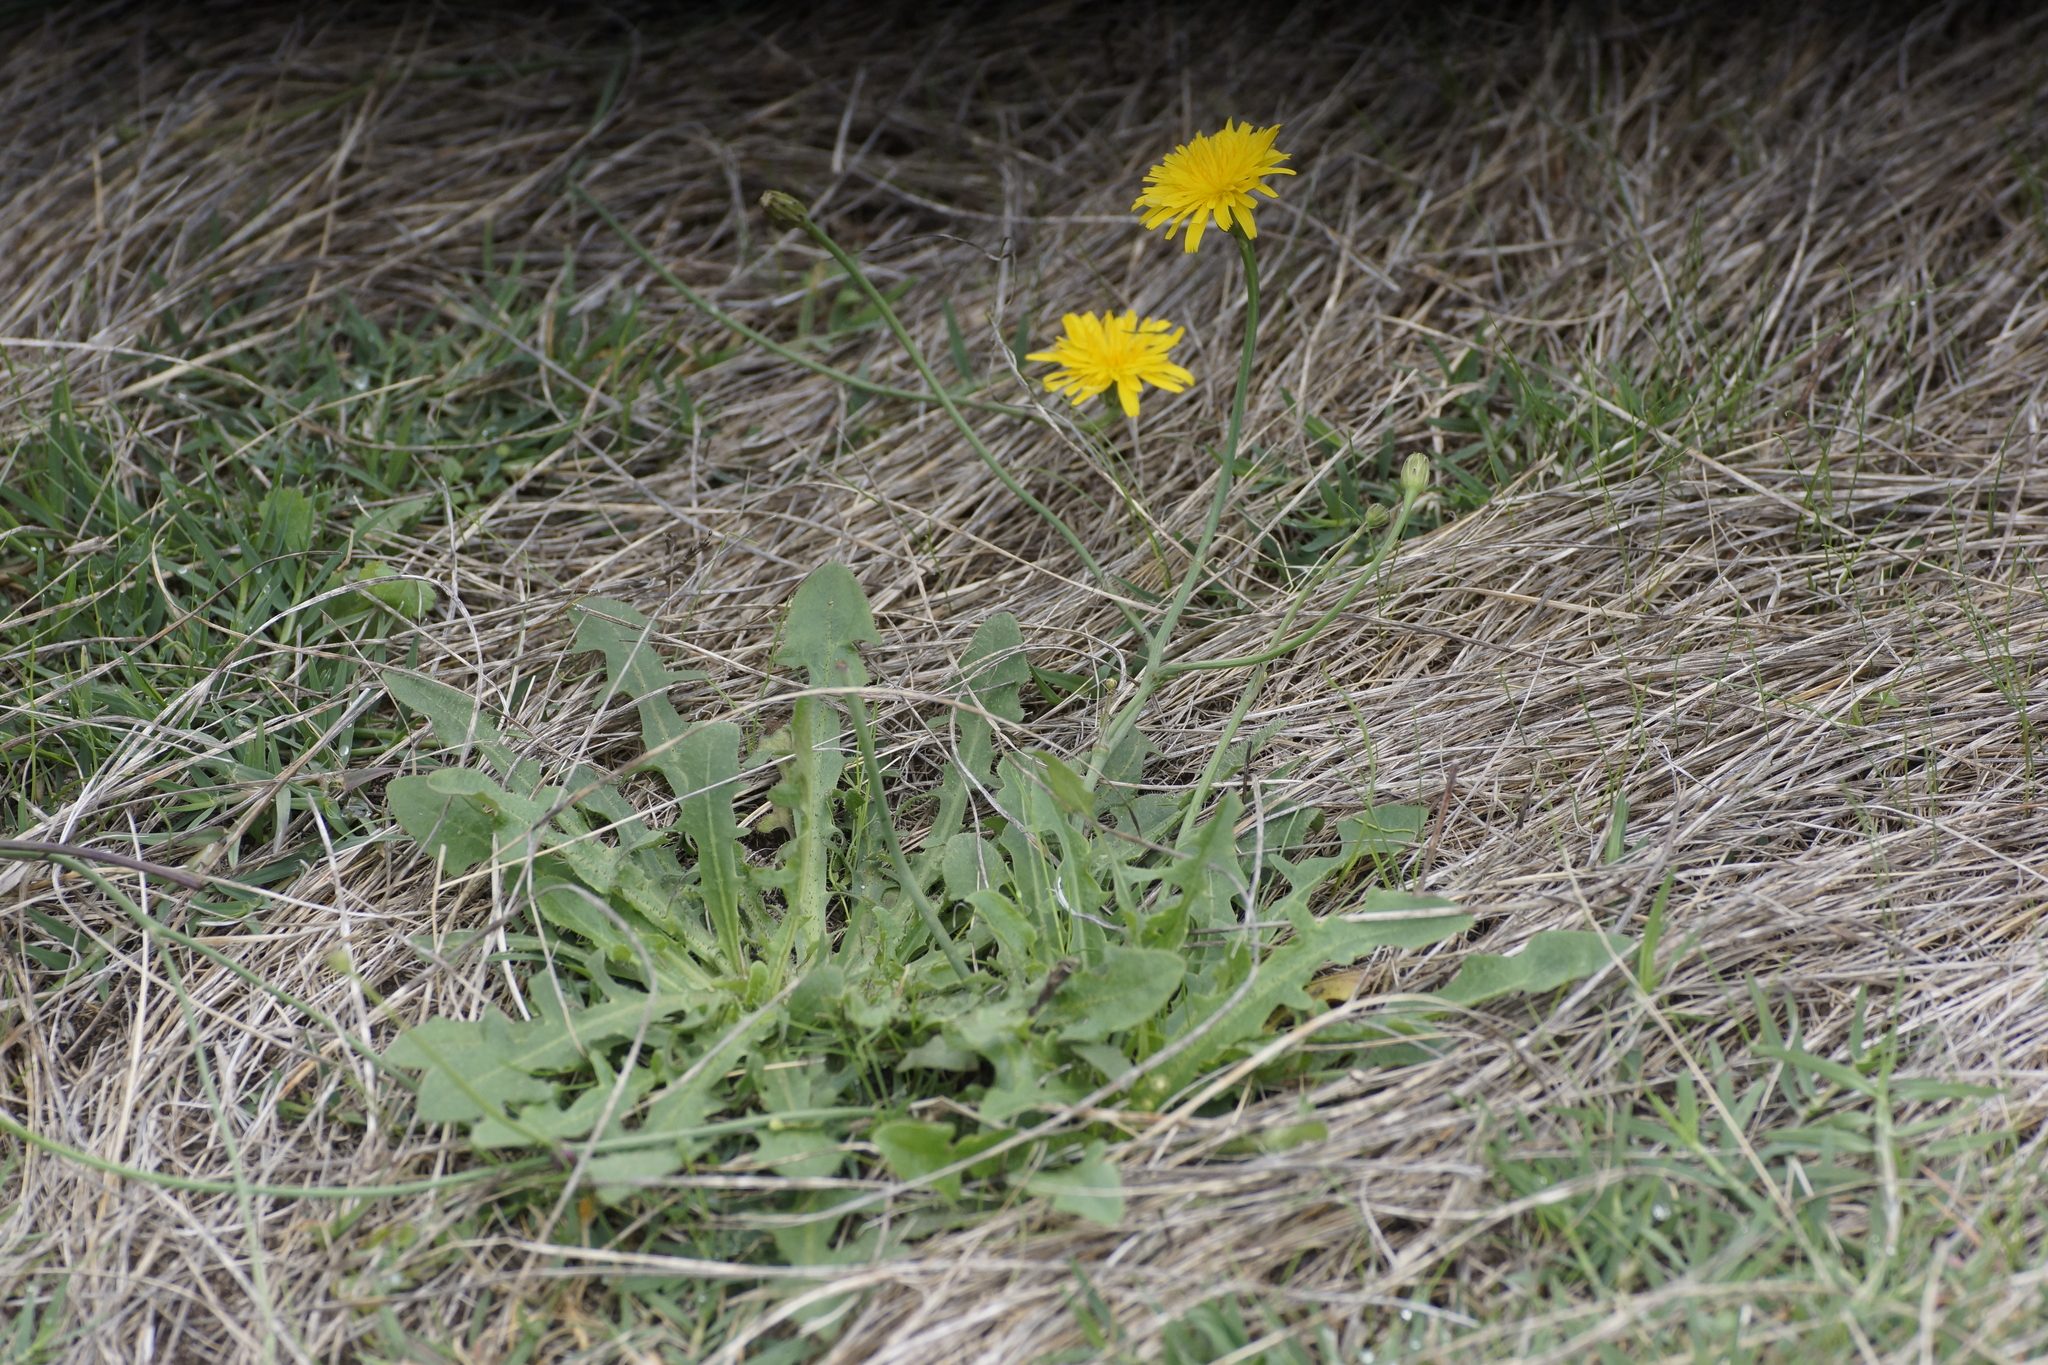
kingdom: Plantae
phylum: Tracheophyta
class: Magnoliopsida
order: Asterales
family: Asteraceae
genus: Hypochaeris
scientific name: Hypochaeris radicata
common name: Flatweed
